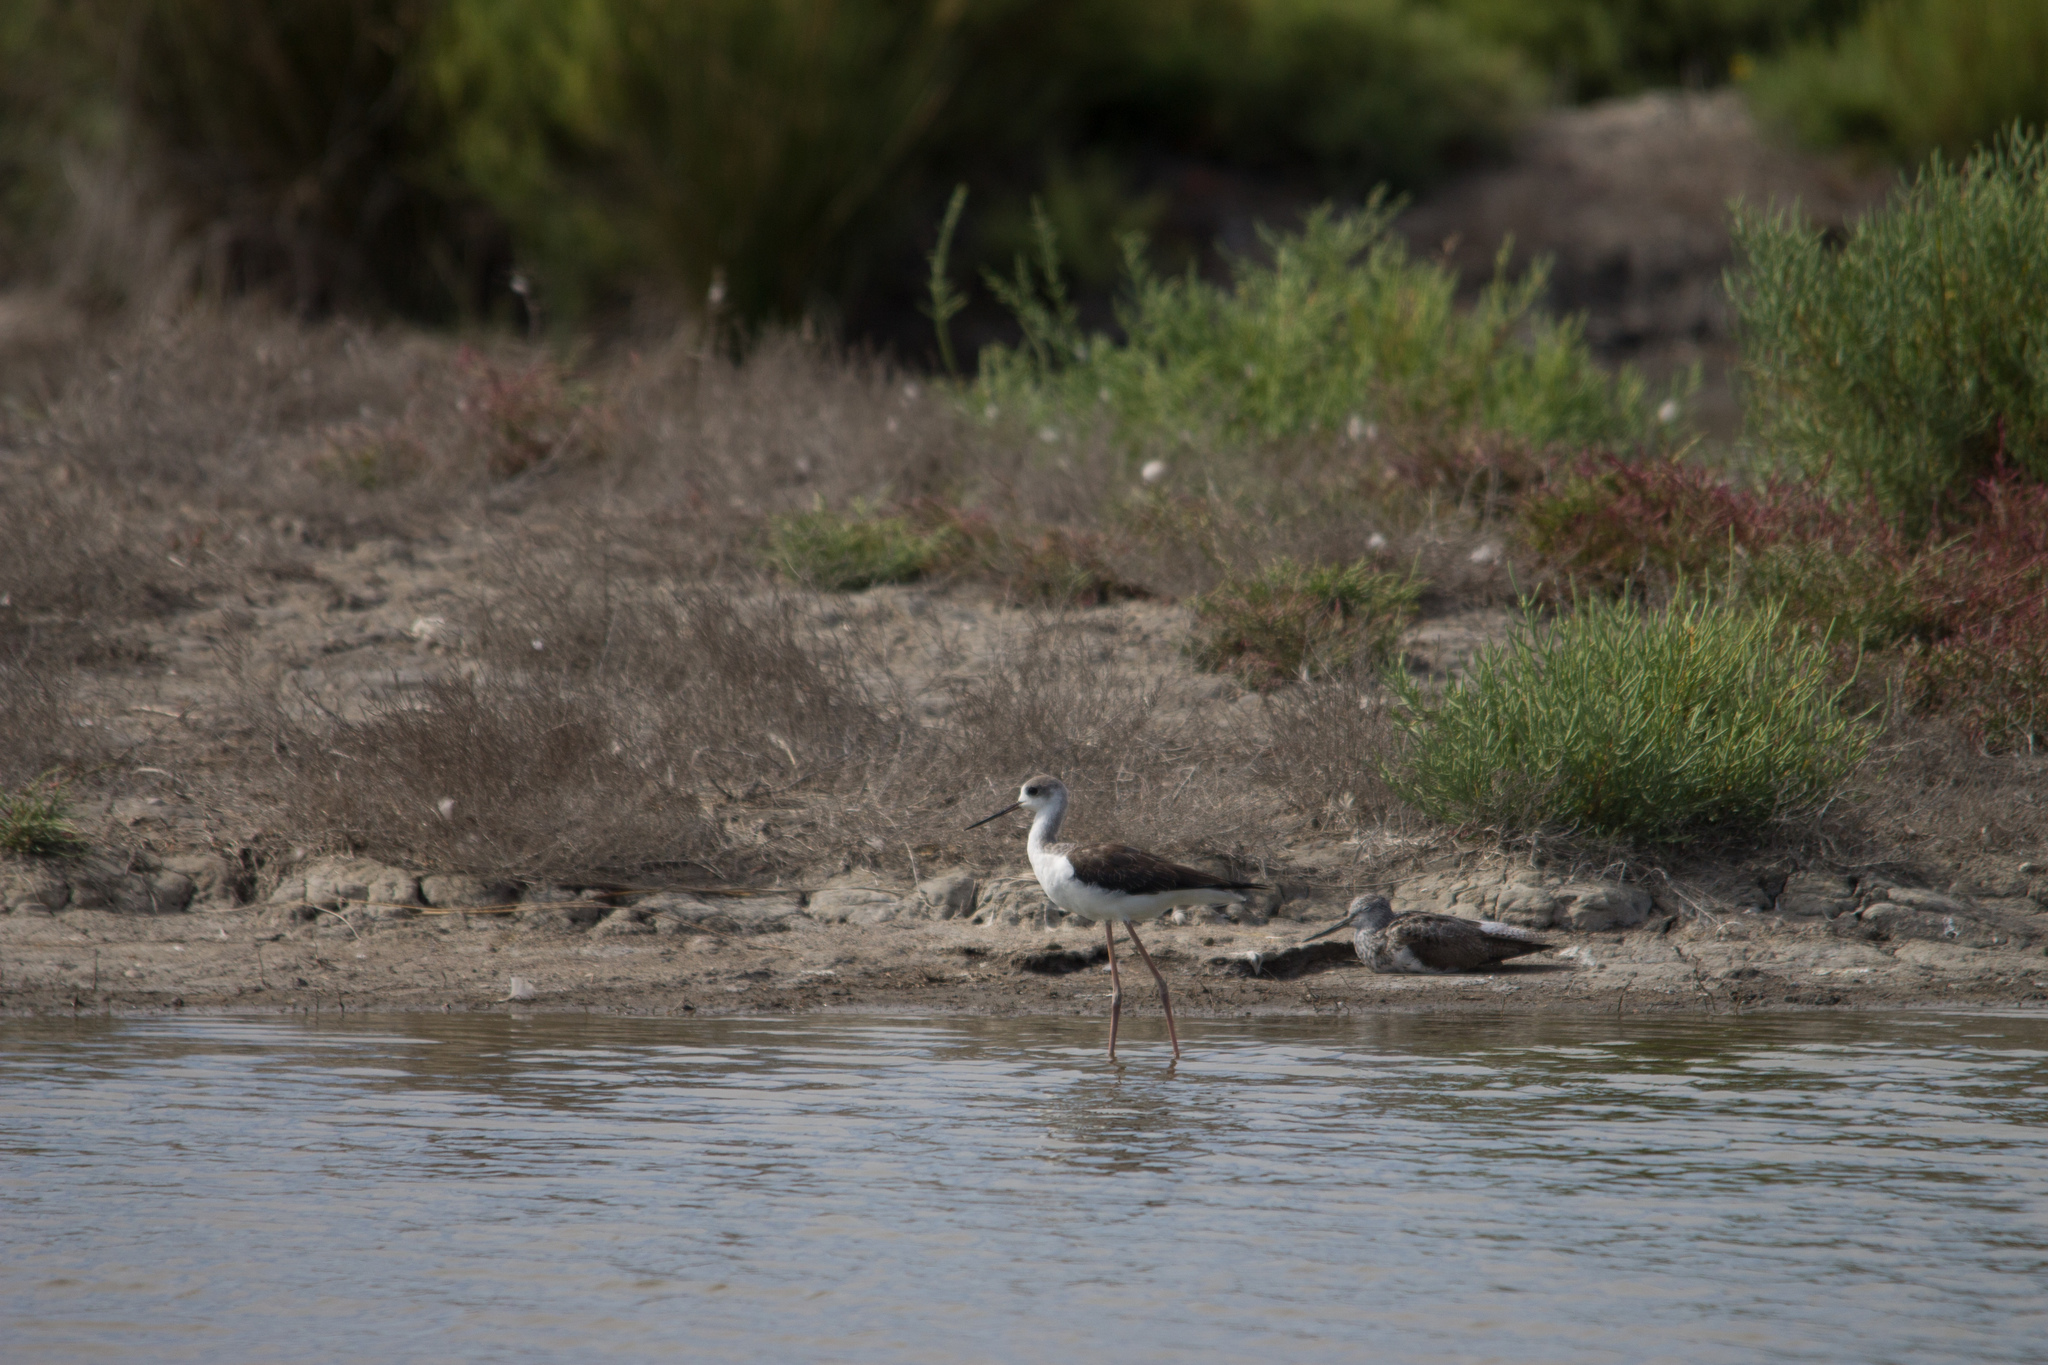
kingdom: Animalia
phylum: Chordata
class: Aves
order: Charadriiformes
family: Scolopacidae
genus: Tringa
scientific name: Tringa nebularia
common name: Common greenshank
